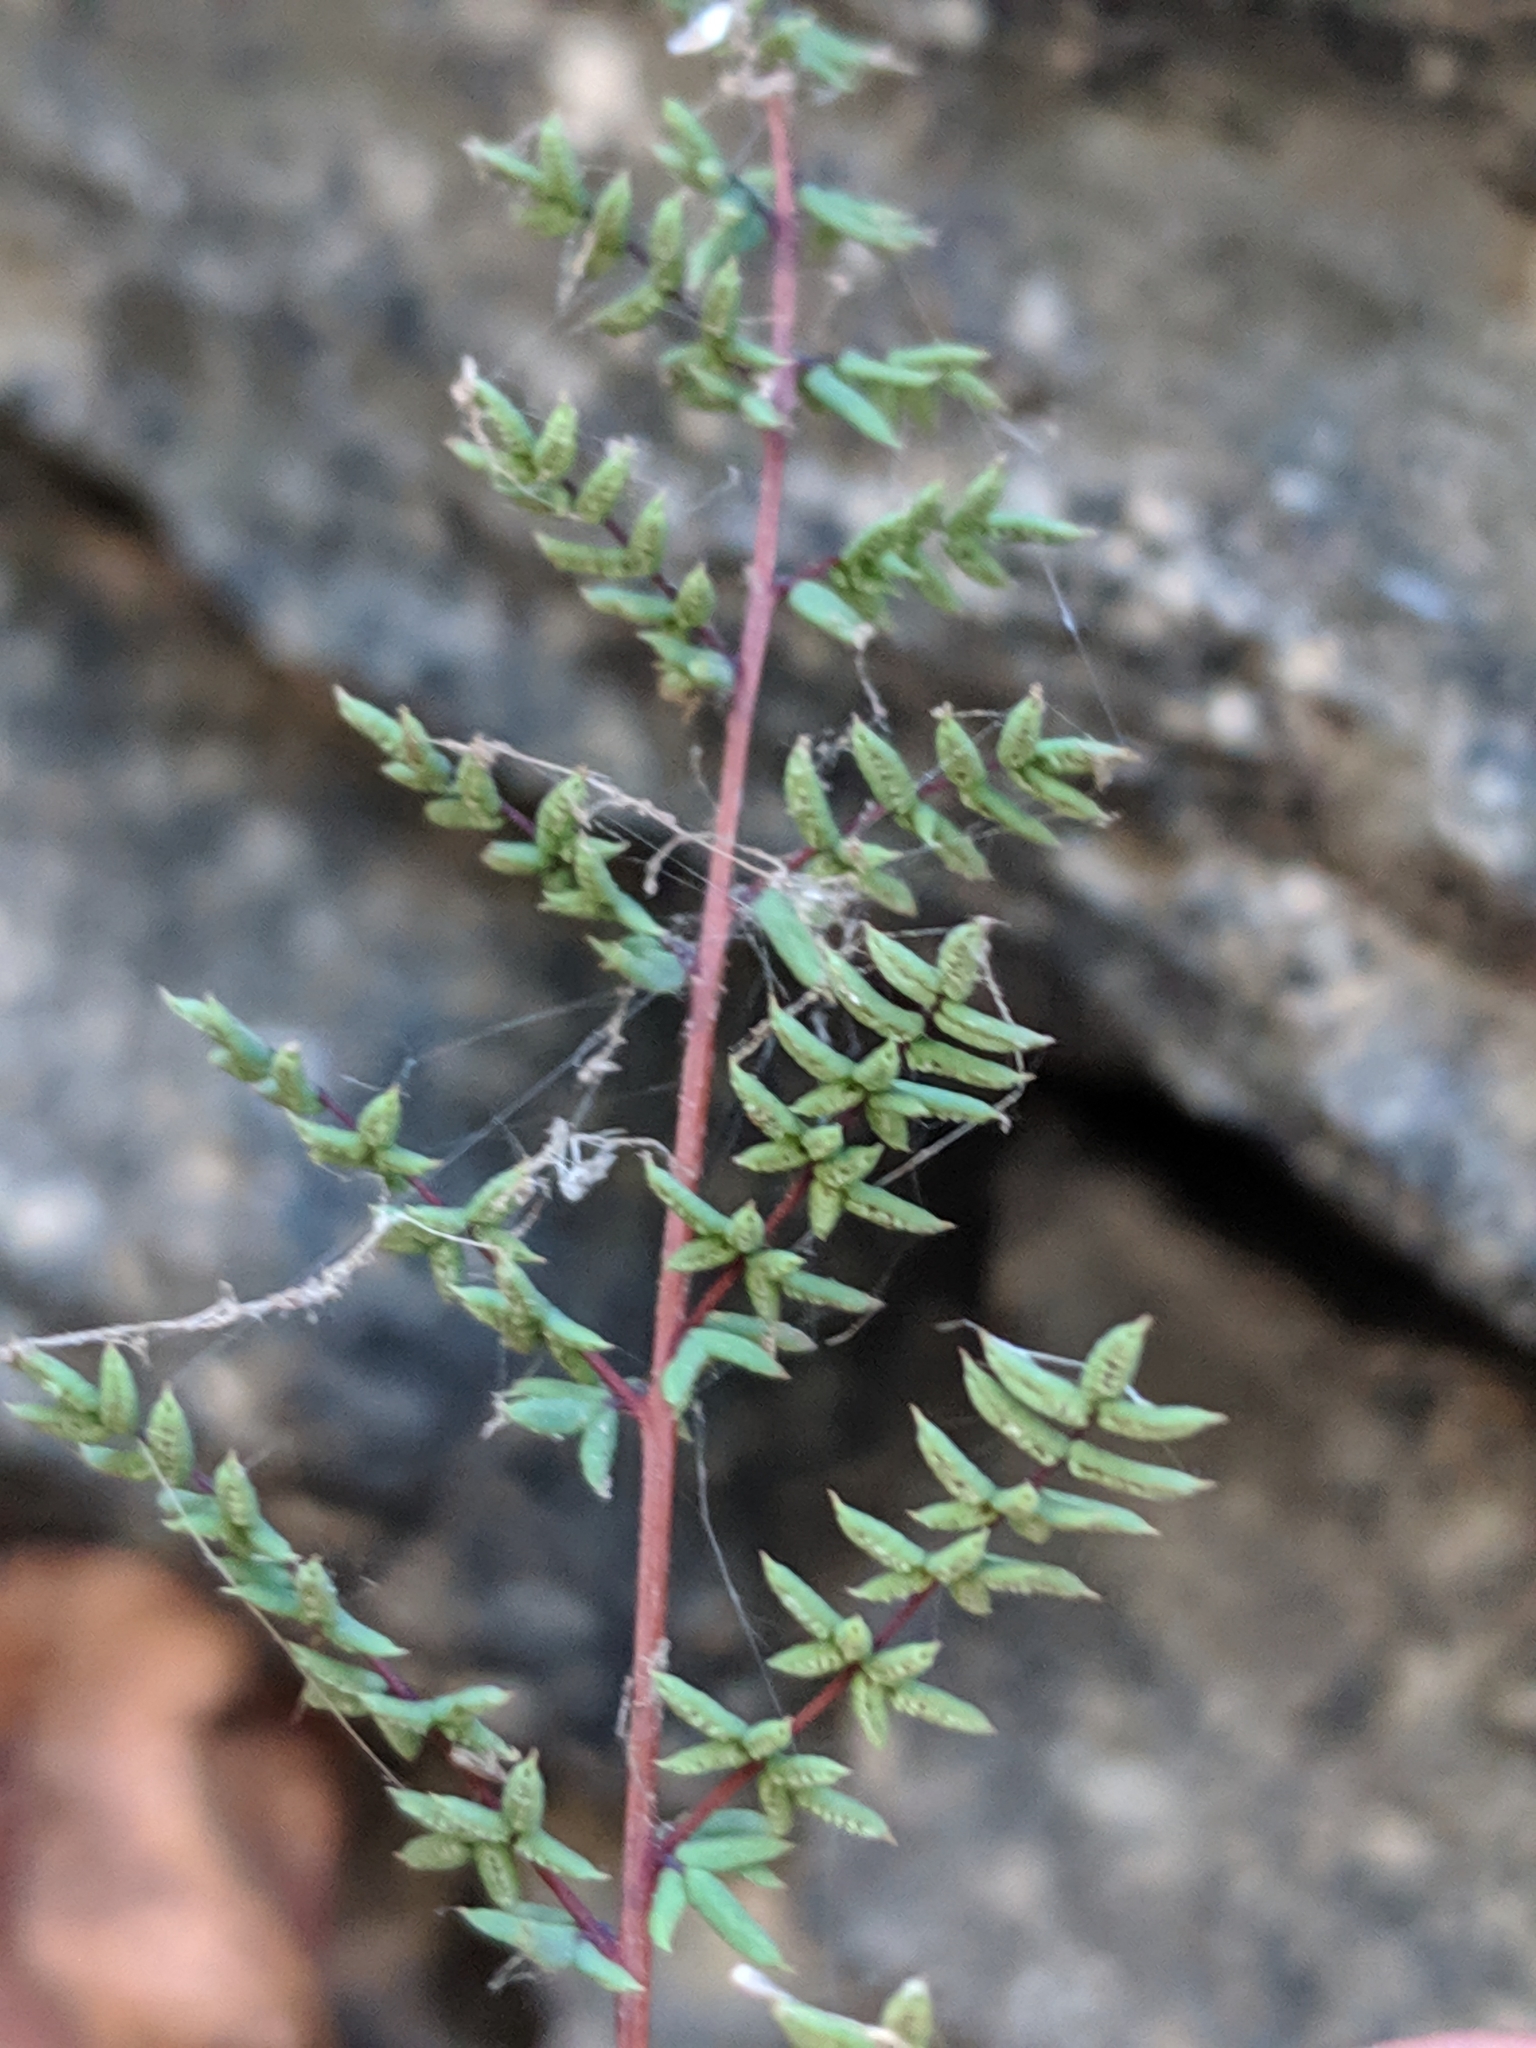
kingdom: Plantae
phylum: Tracheophyta
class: Polypodiopsida
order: Polypodiales
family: Pteridaceae
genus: Pellaea
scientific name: Pellaea mucronata
